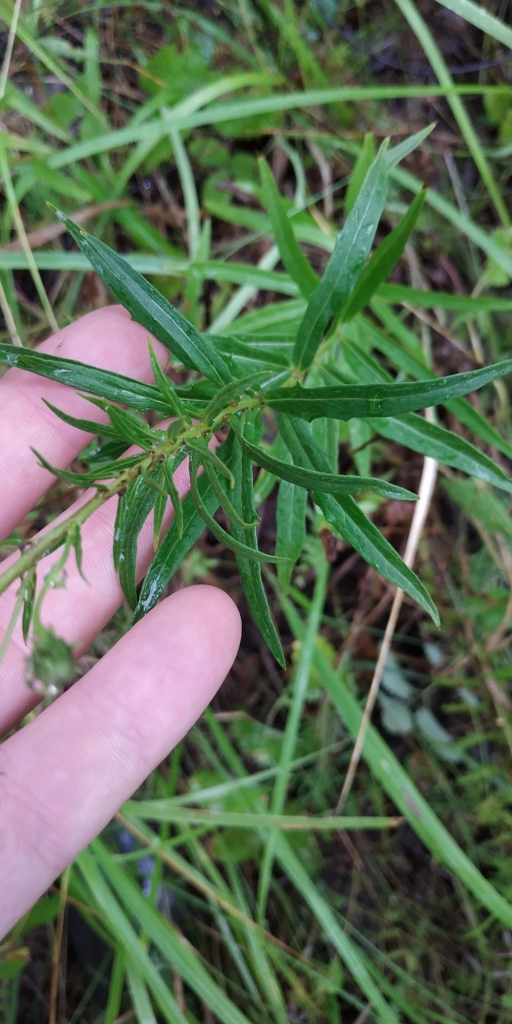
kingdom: Plantae
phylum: Tracheophyta
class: Magnoliopsida
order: Asterales
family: Asteraceae
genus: Hieracium
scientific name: Hieracium umbellatum
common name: Northern hawkweed
